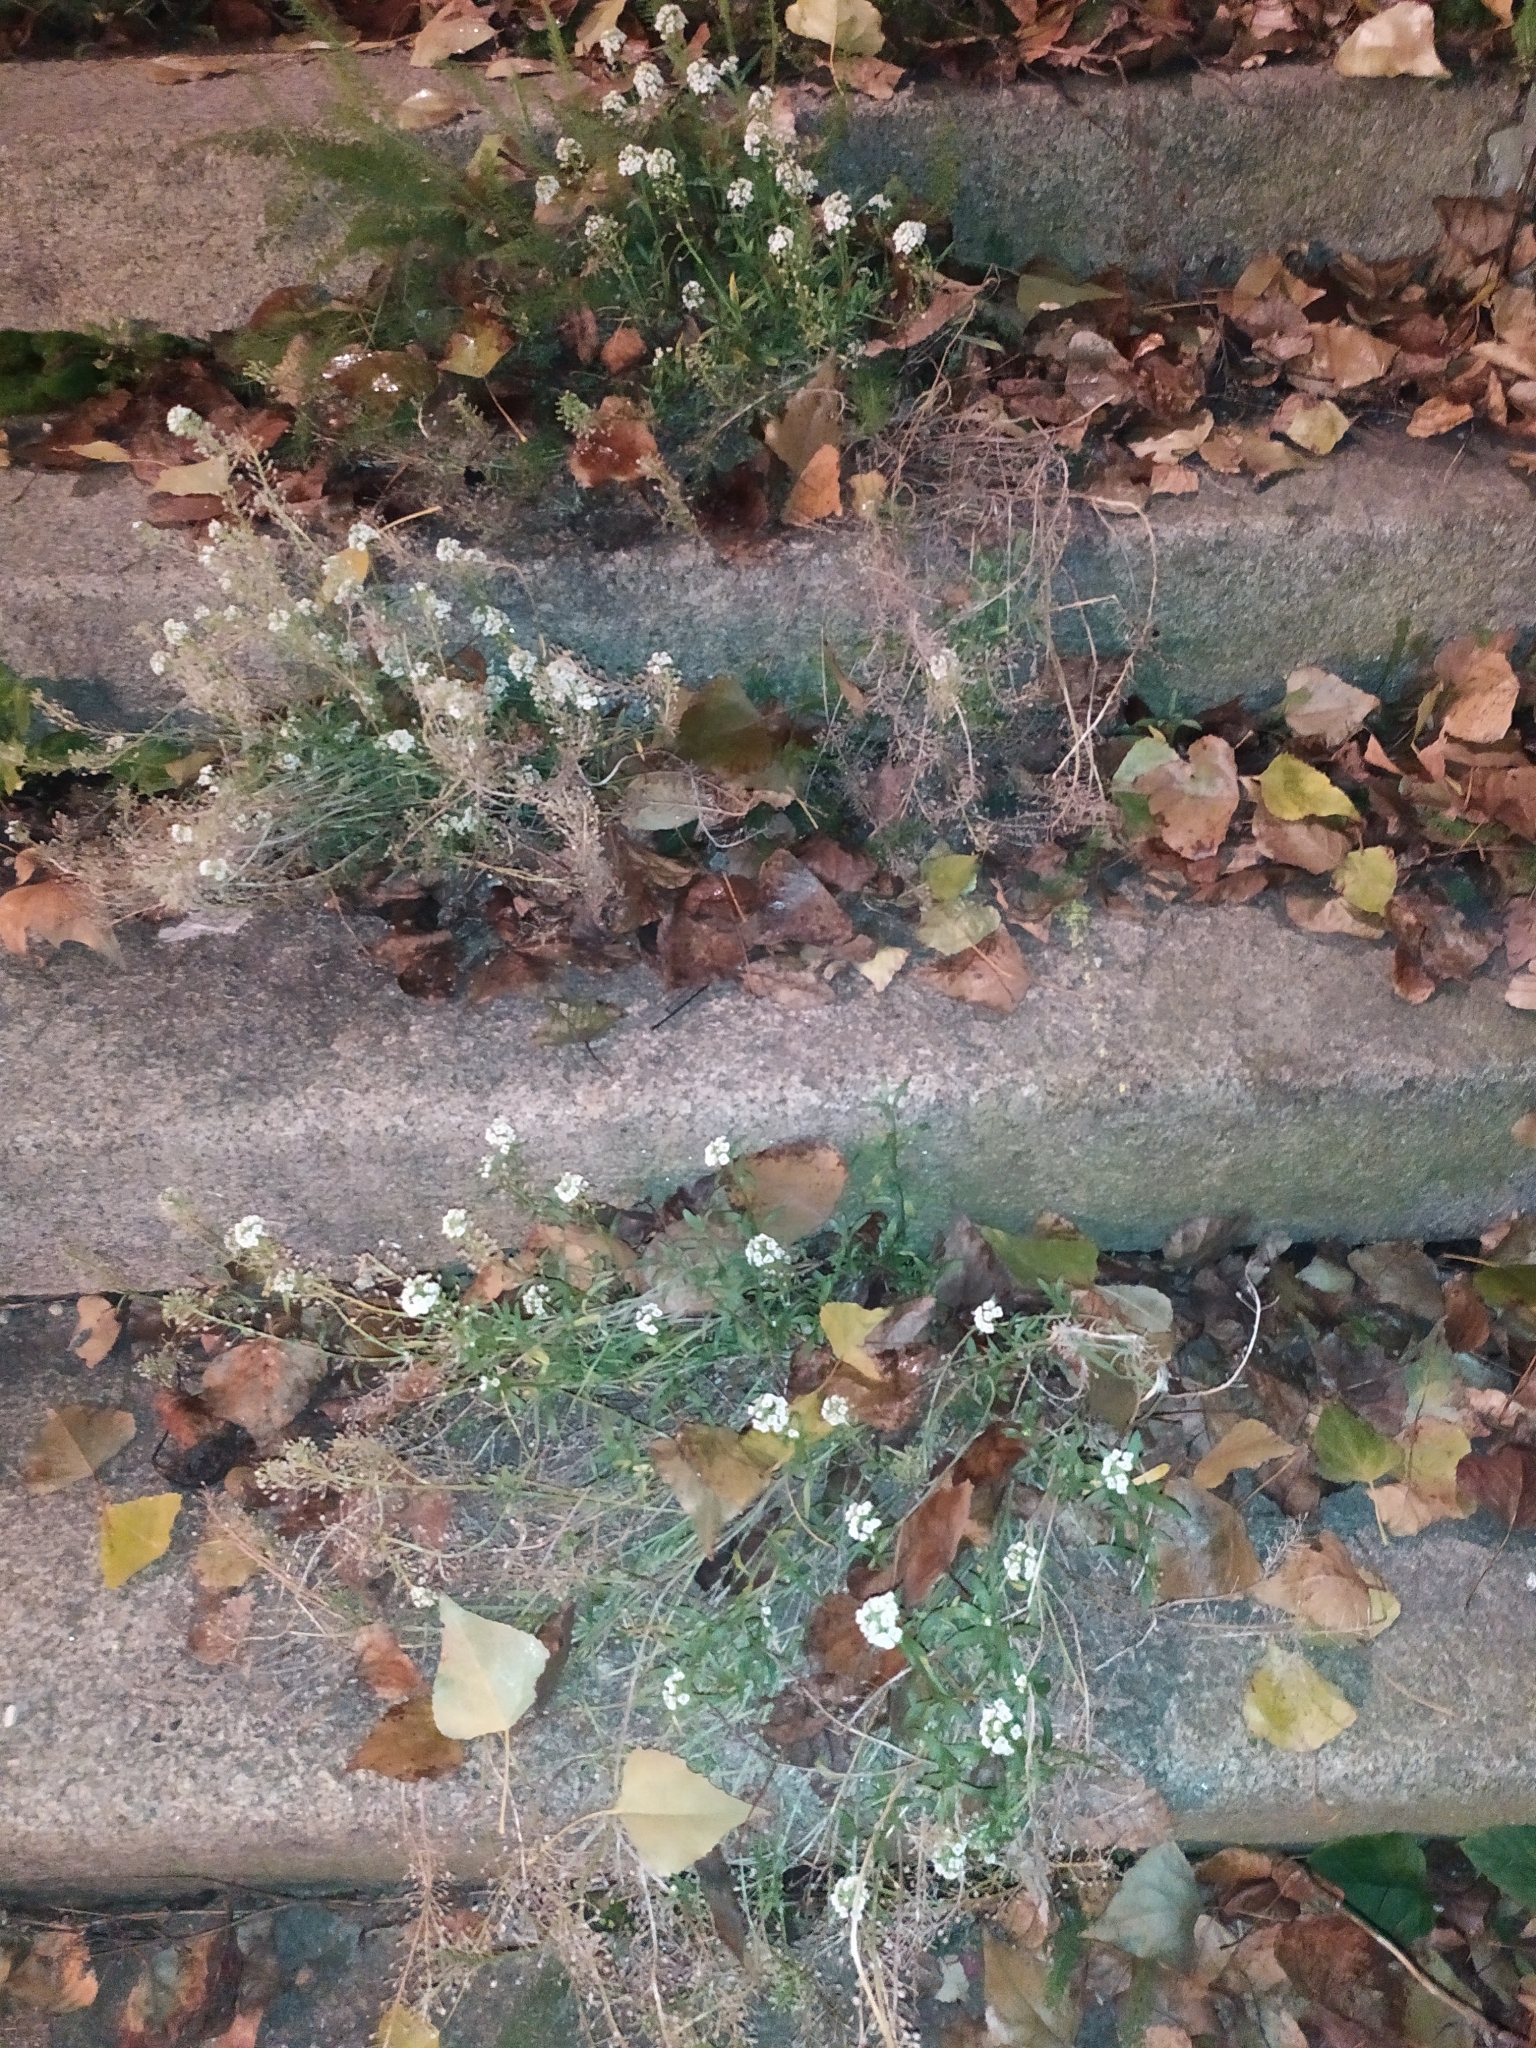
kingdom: Plantae
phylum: Tracheophyta
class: Magnoliopsida
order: Brassicales
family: Brassicaceae
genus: Lobularia
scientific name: Lobularia maritima
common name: Sweet alison
